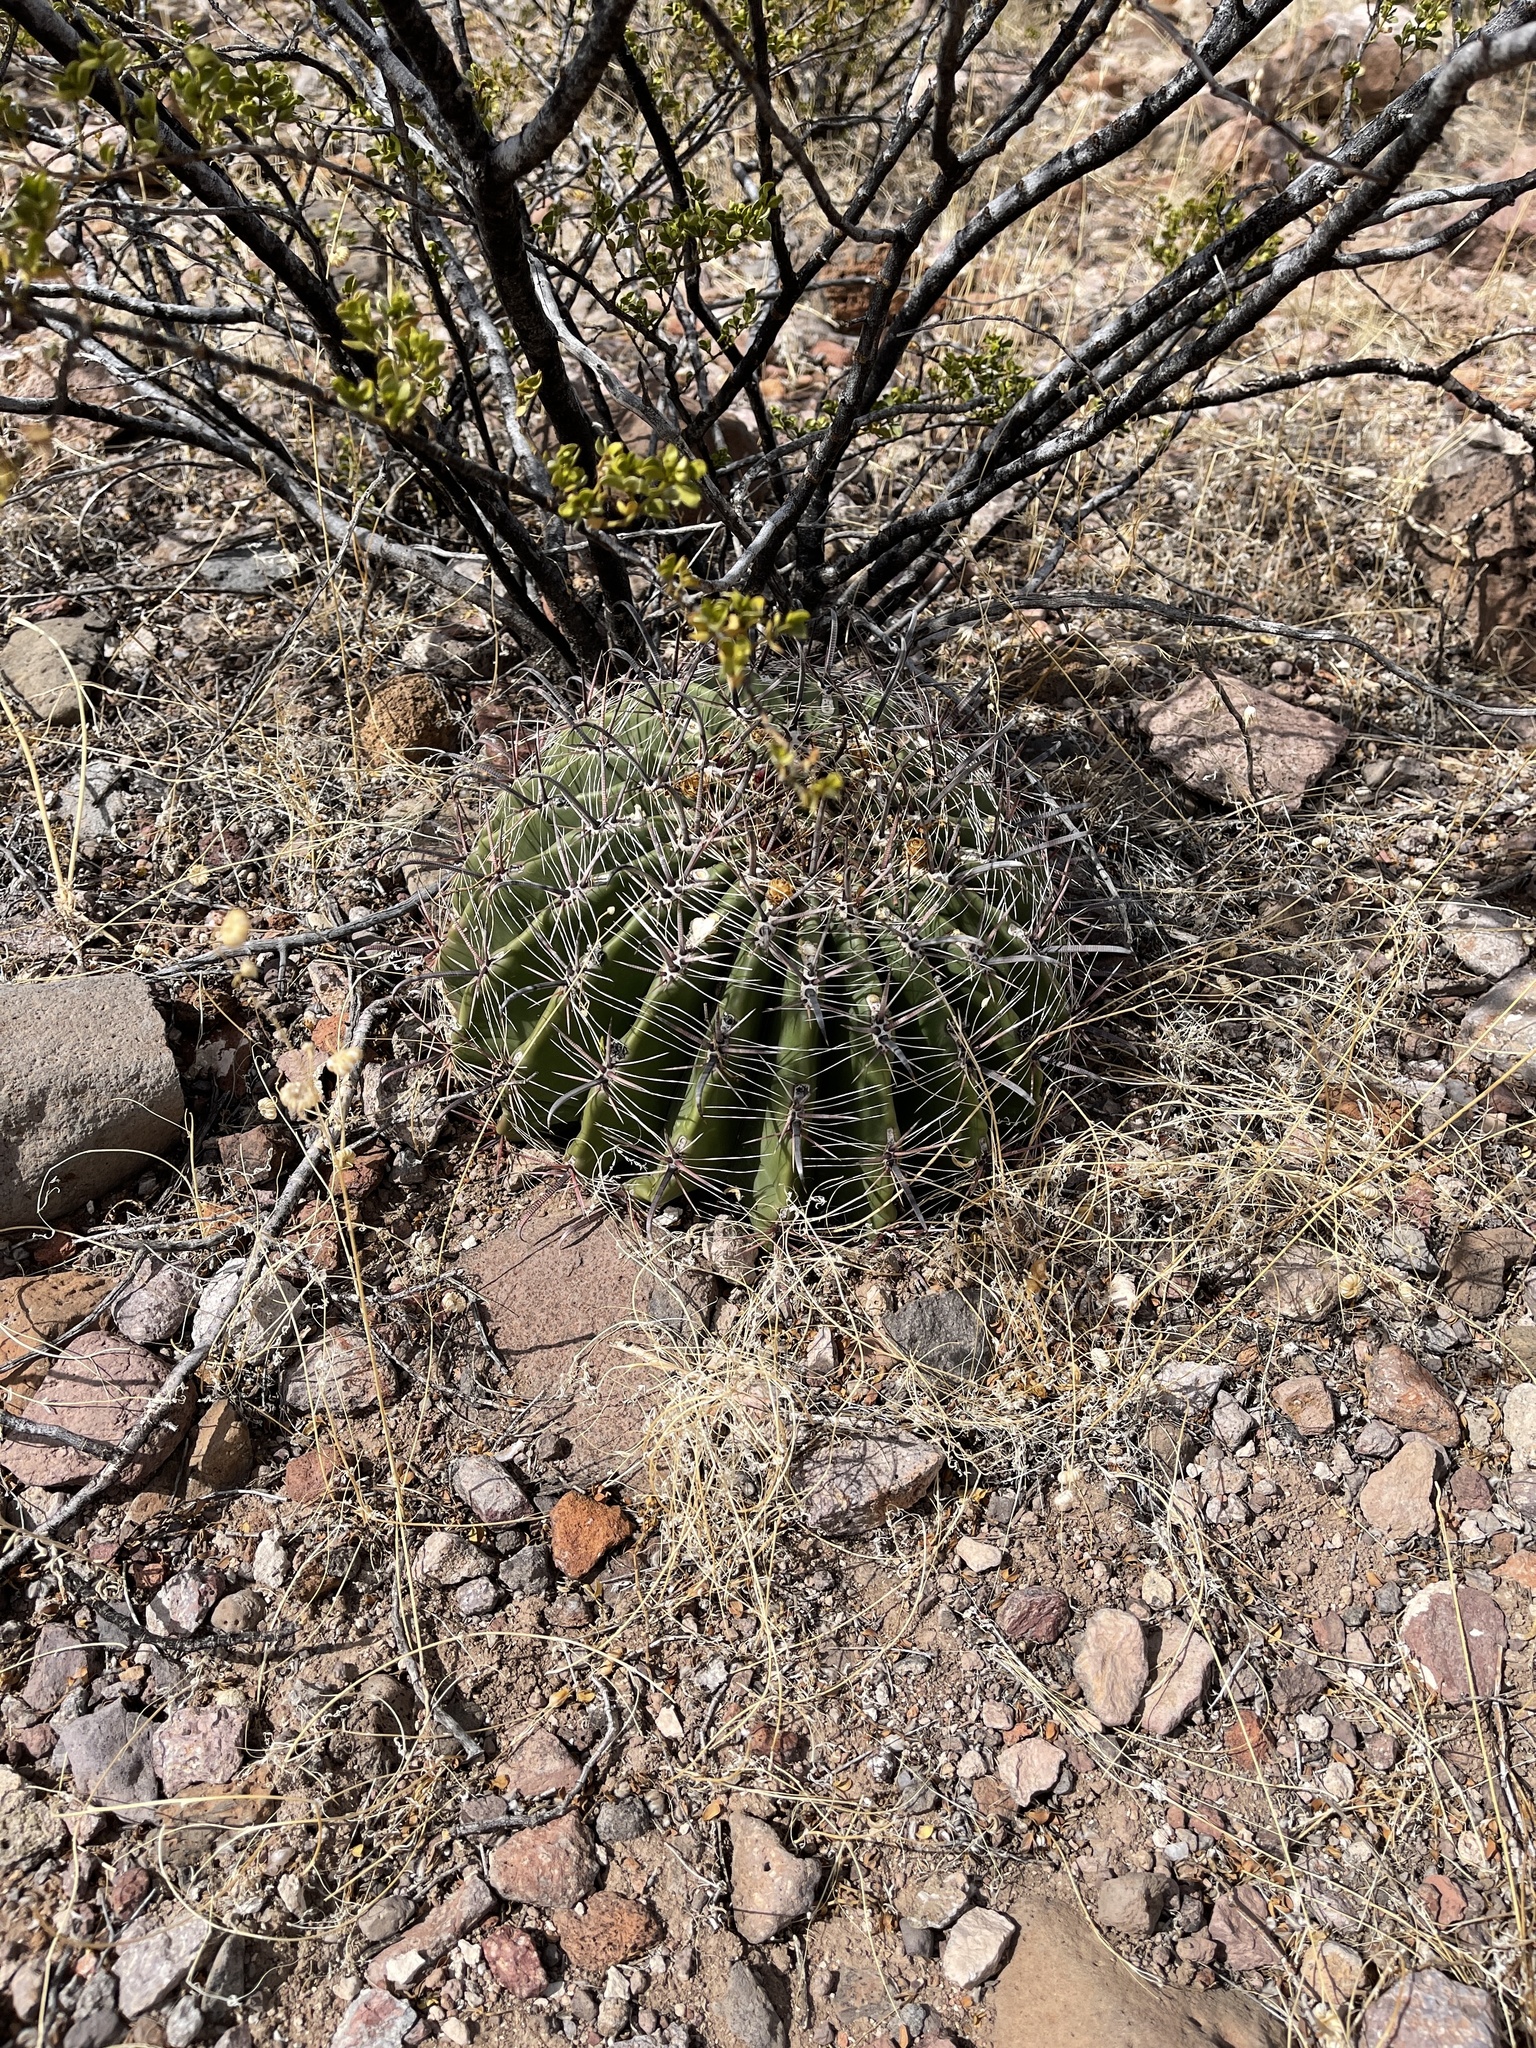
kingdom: Plantae
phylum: Tracheophyta
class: Magnoliopsida
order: Caryophyllales
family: Cactaceae
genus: Ferocactus
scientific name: Ferocactus wislizeni
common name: Candy barrel cactus
